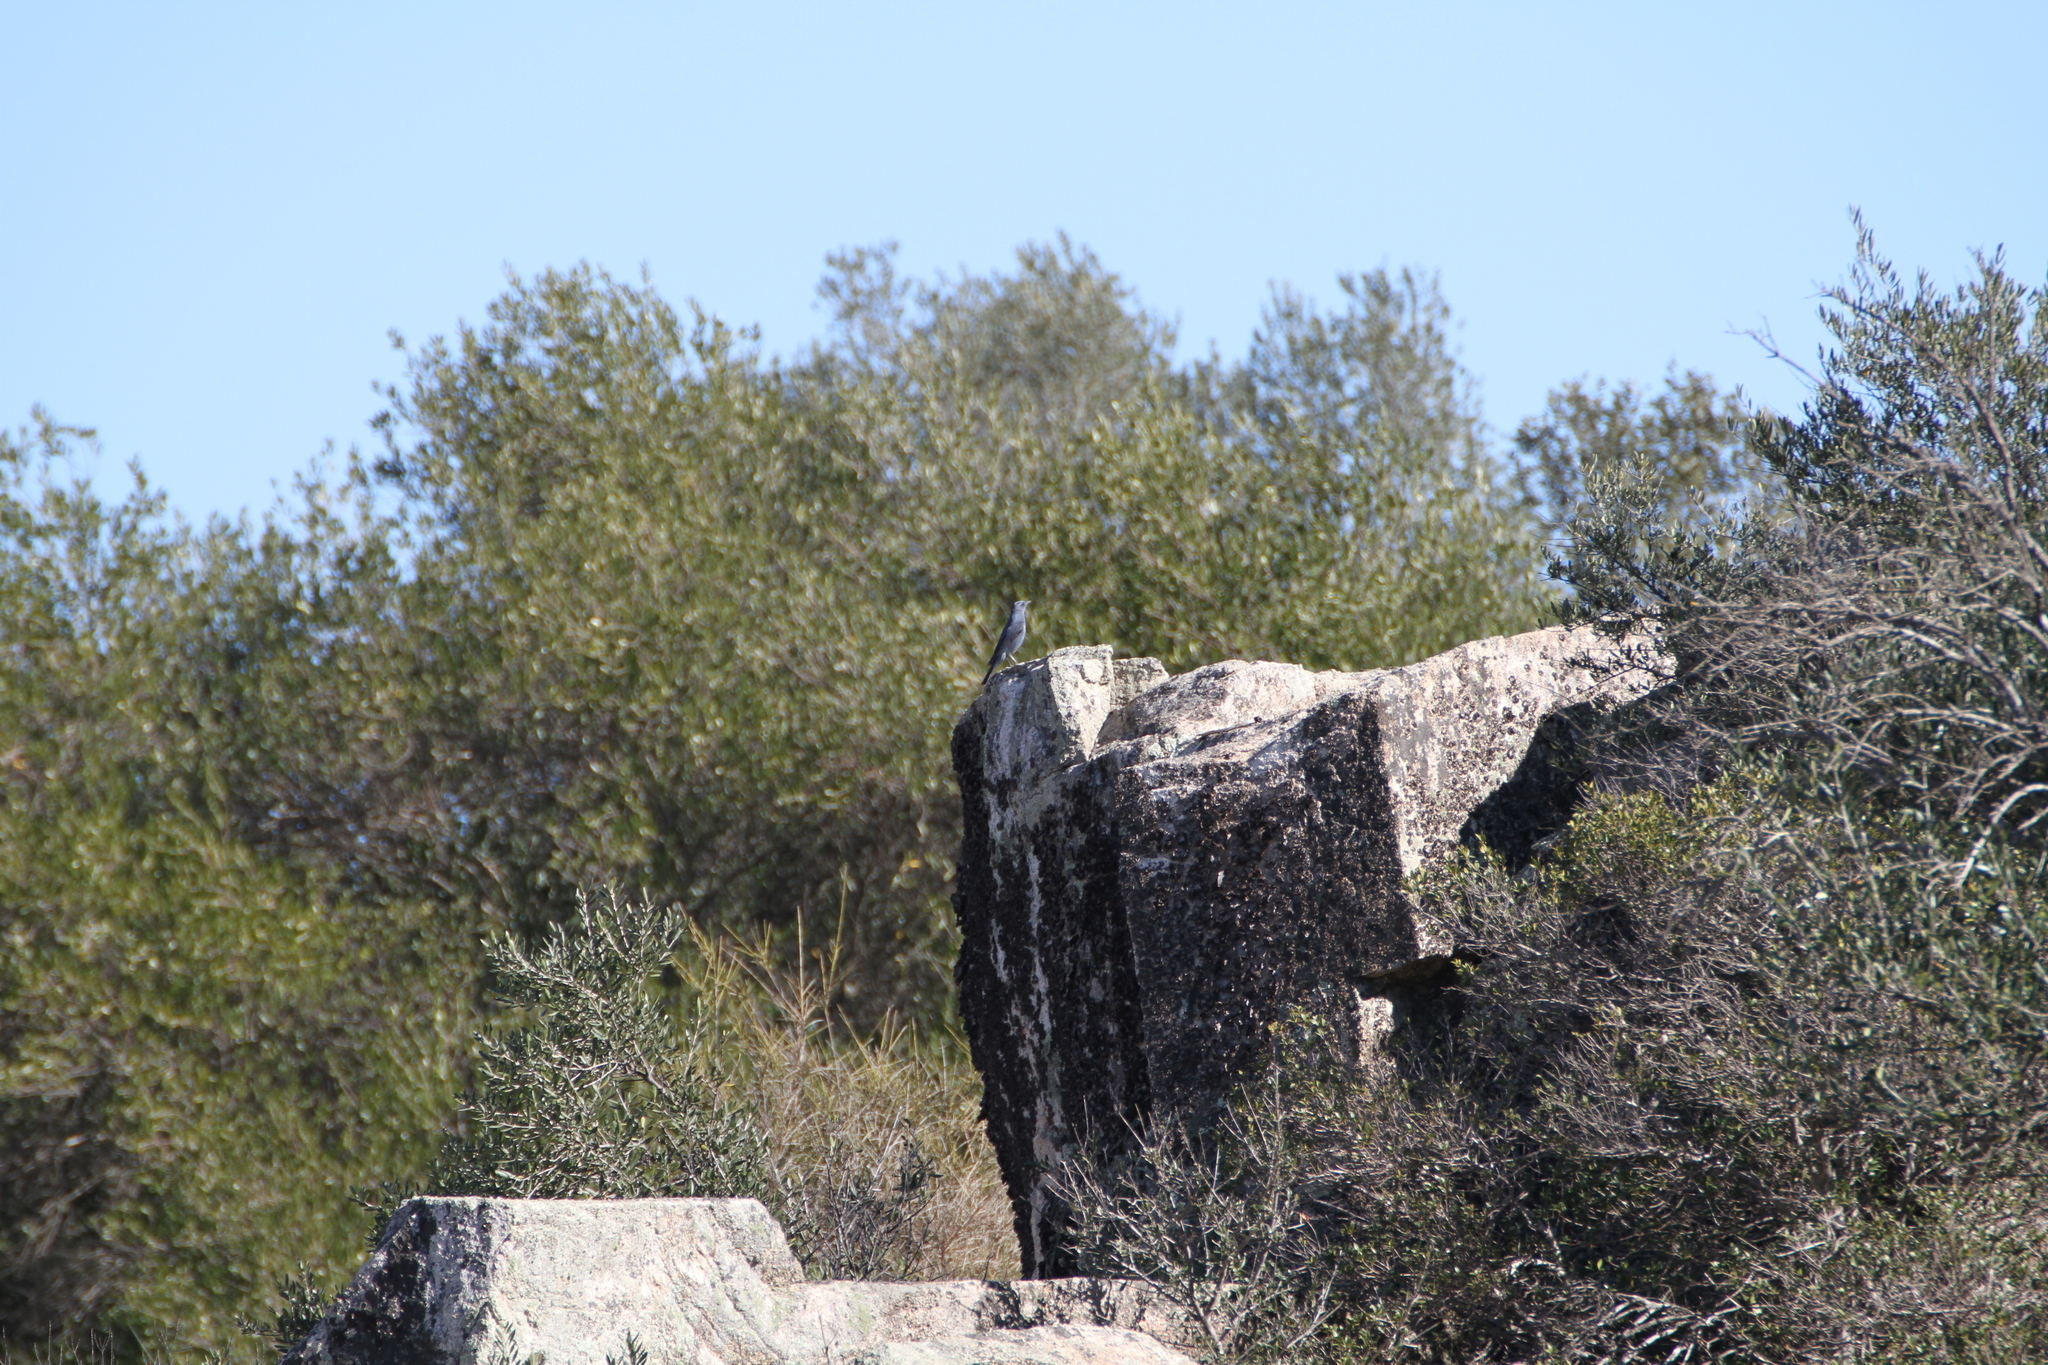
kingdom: Animalia
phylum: Chordata
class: Aves
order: Passeriformes
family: Muscicapidae
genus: Monticola
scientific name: Monticola solitarius
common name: Blue rock thrush
